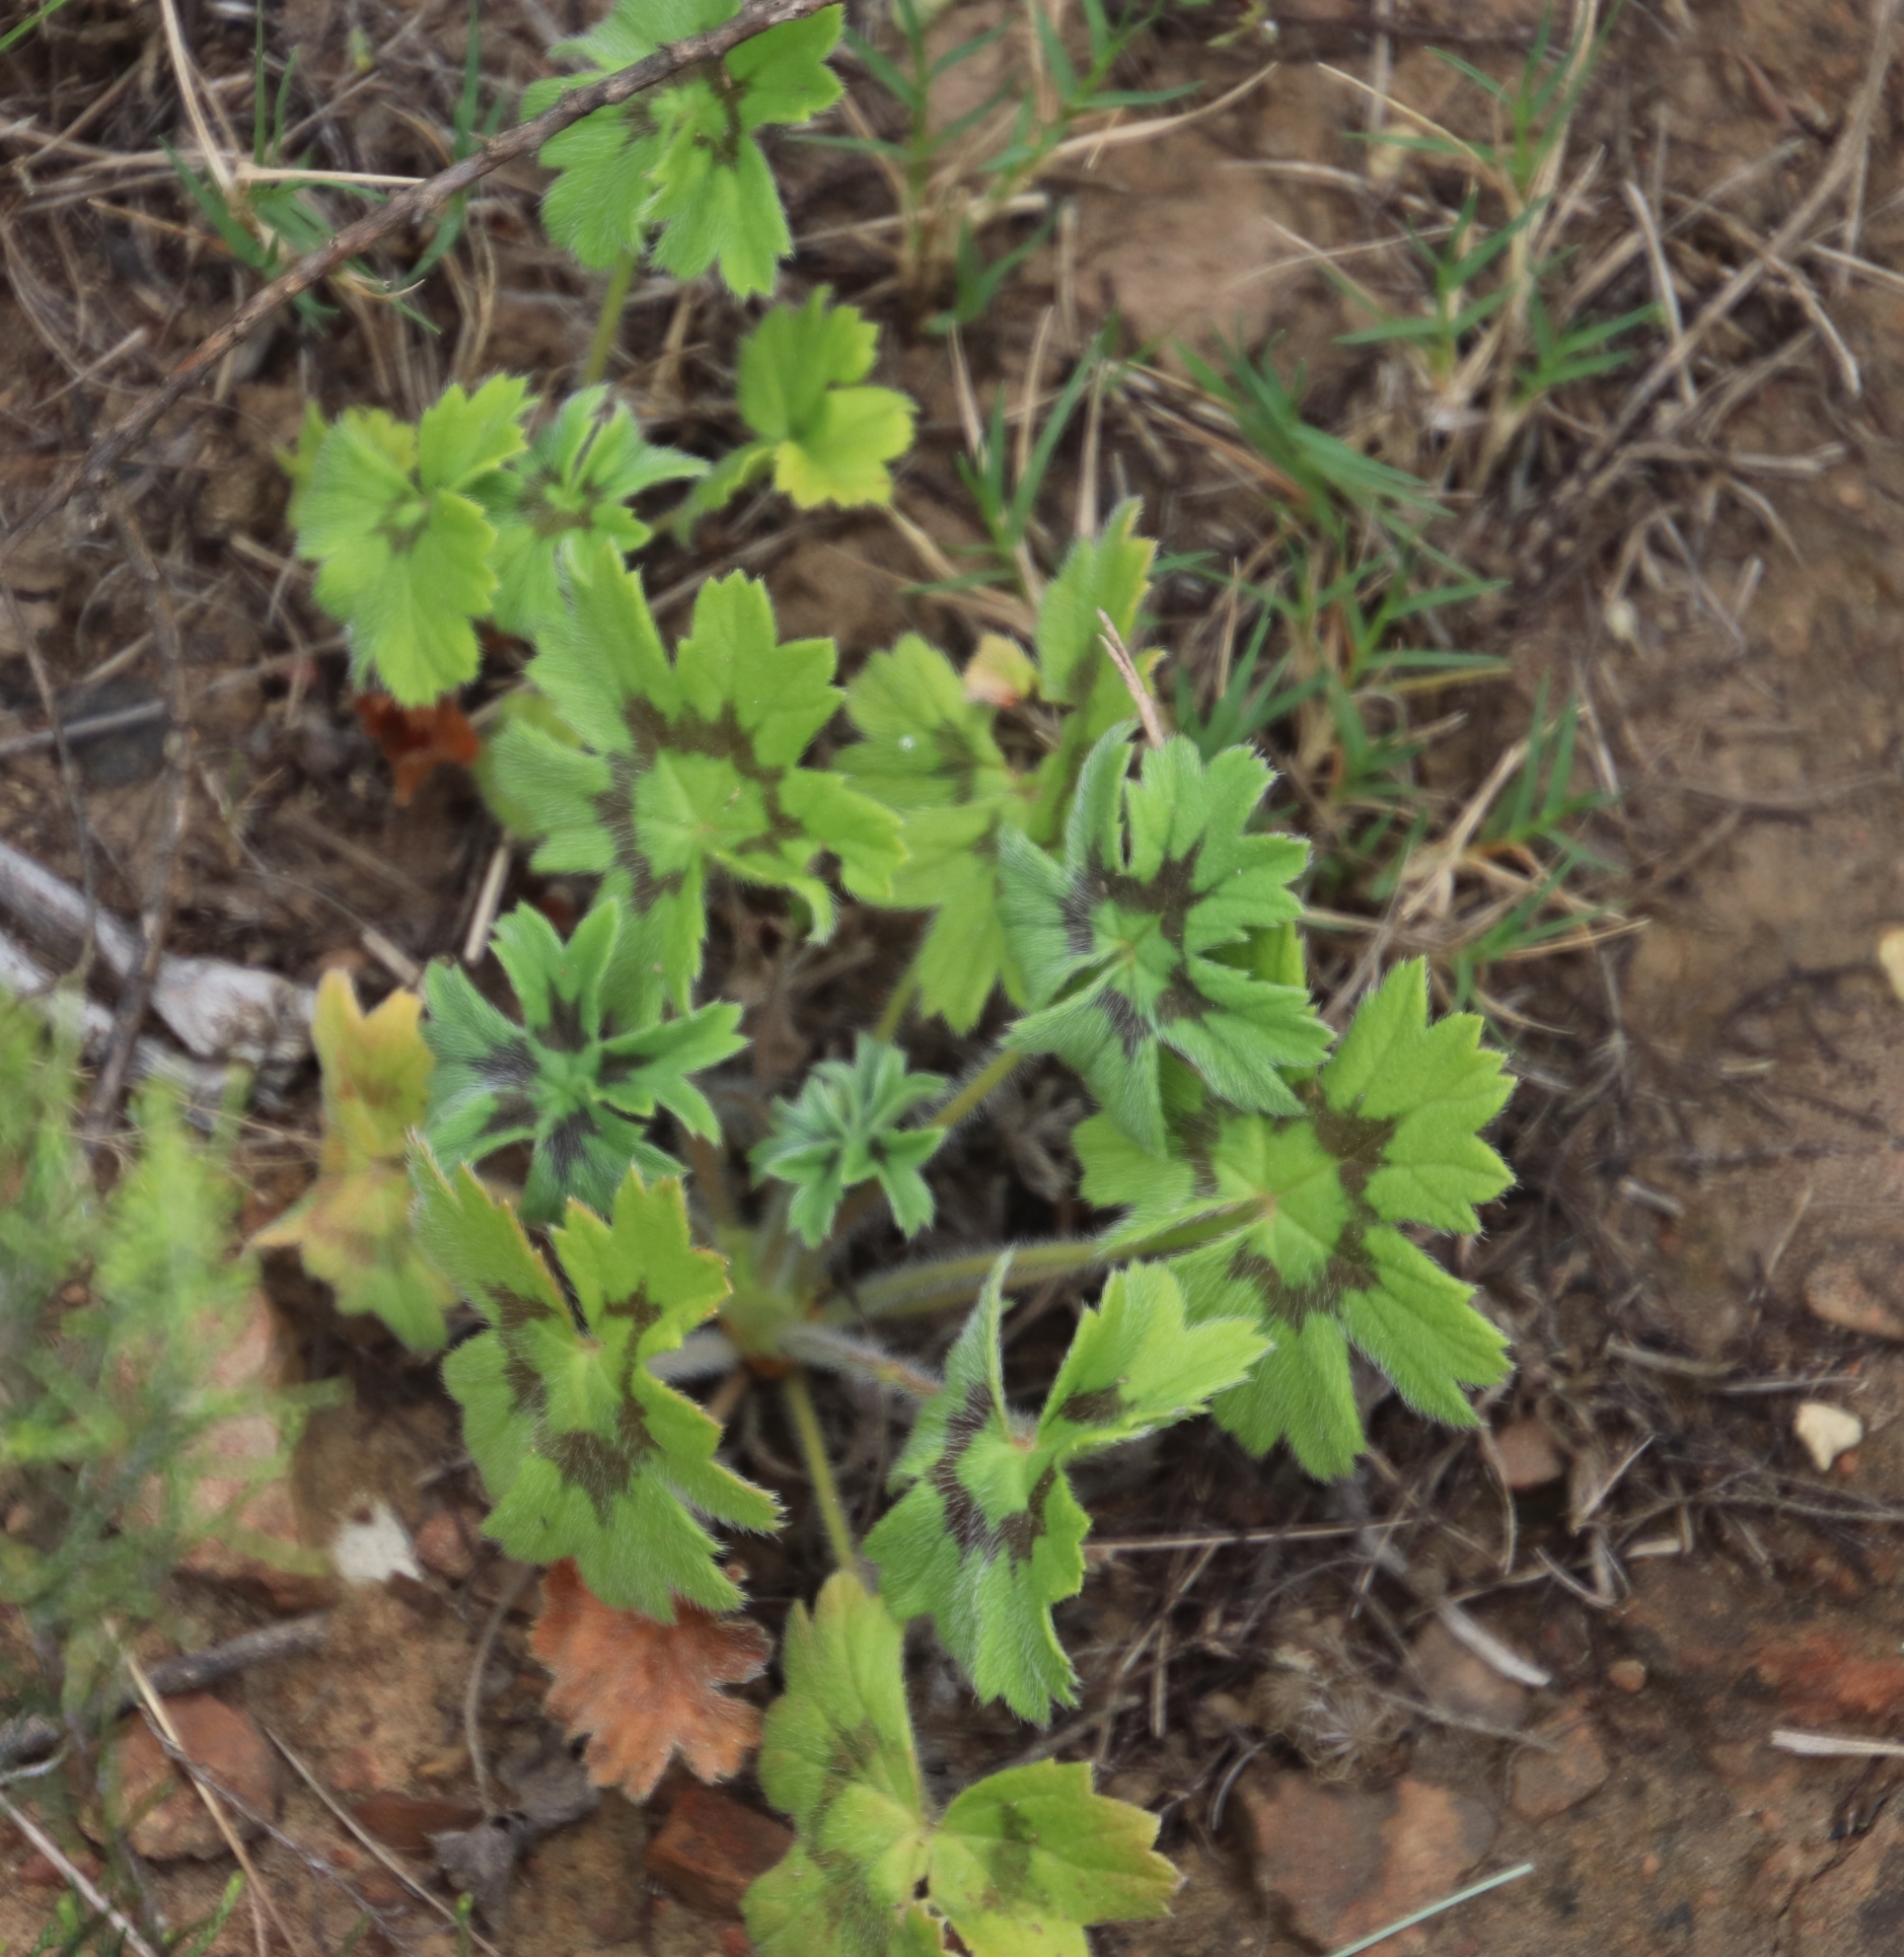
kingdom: Plantae
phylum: Tracheophyta
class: Magnoliopsida
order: Geraniales
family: Geraniaceae
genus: Pelargonium
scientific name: Pelargonium alchemilloides
